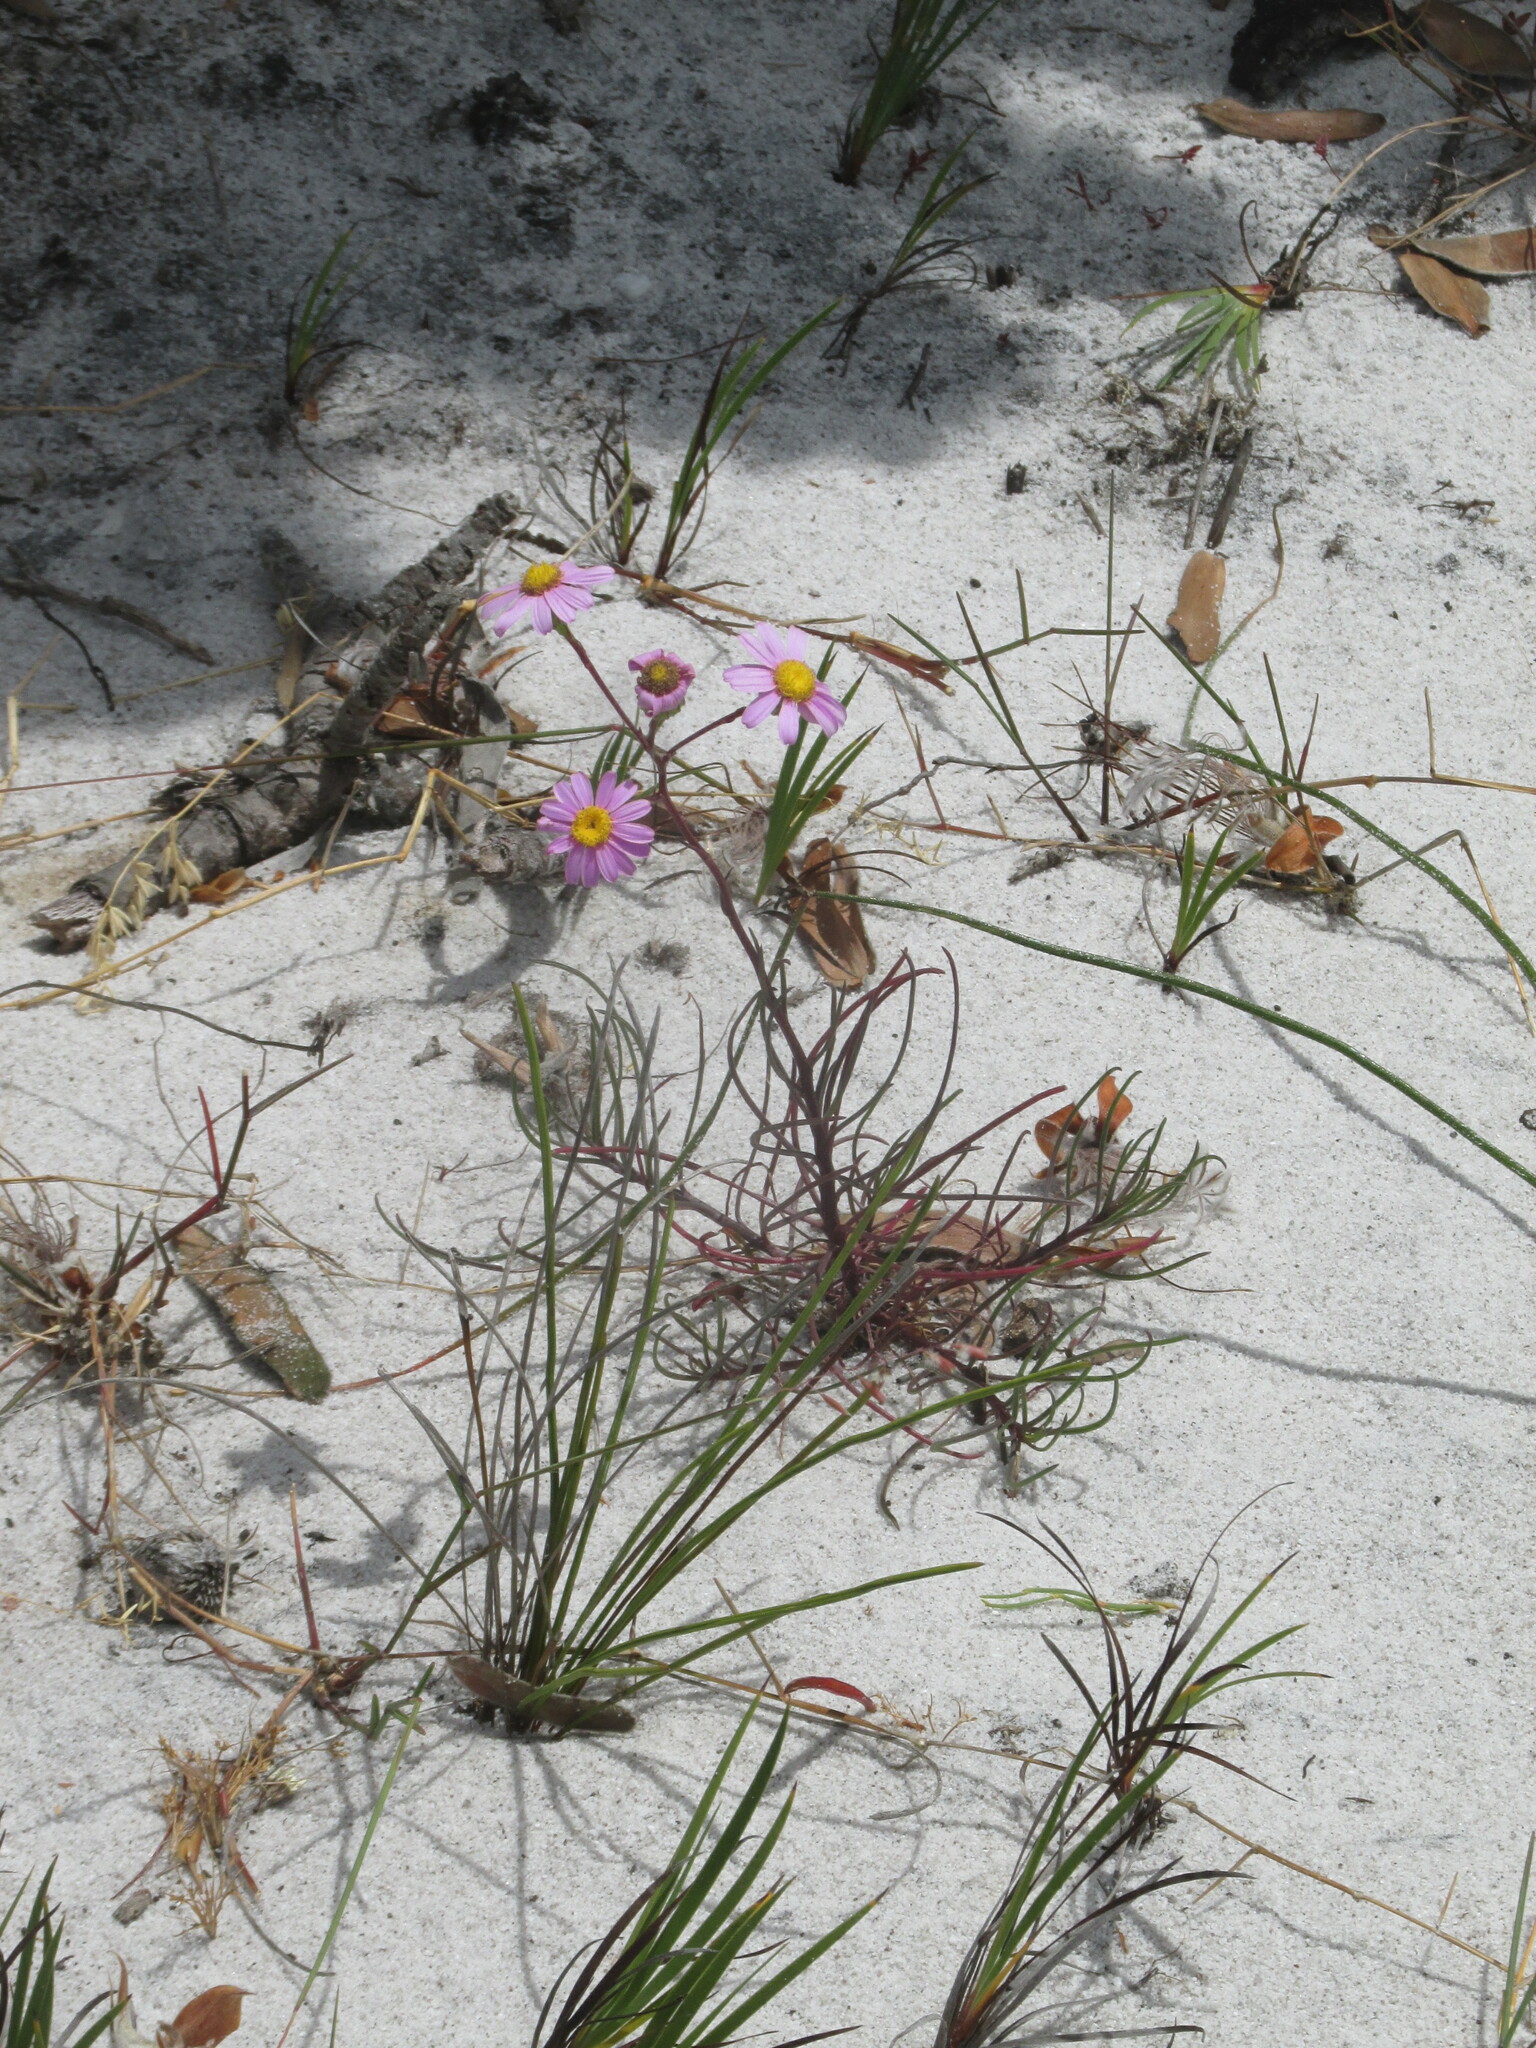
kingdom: Plantae
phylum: Tracheophyta
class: Magnoliopsida
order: Asterales
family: Asteraceae
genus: Senecio
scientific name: Senecio umbellatus
